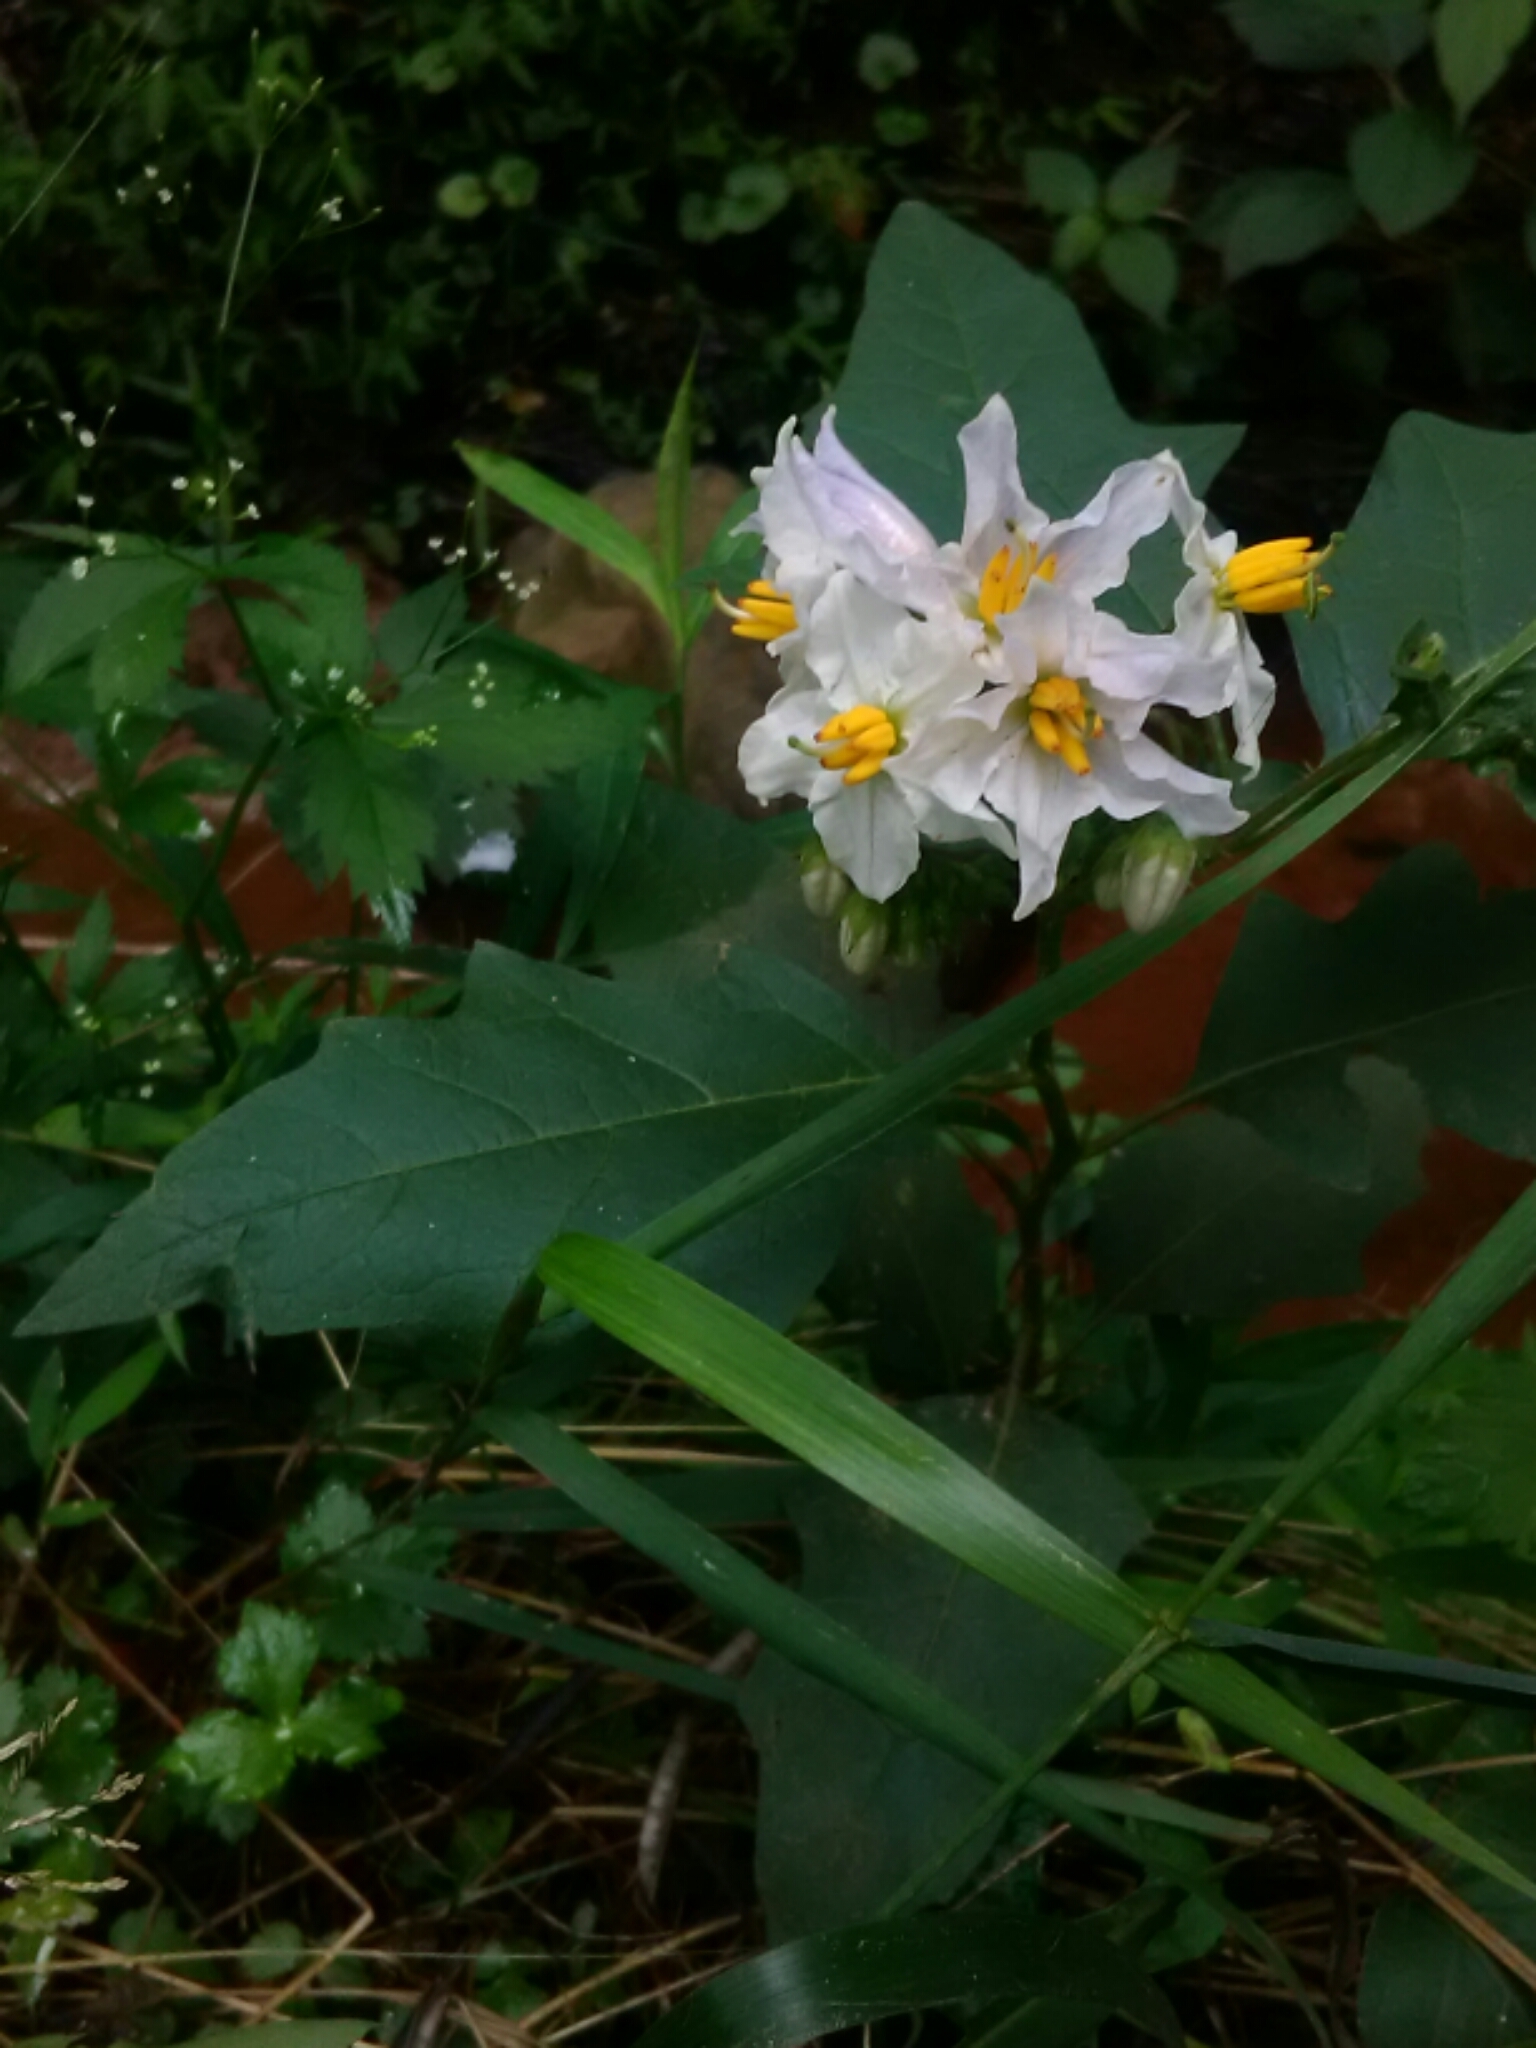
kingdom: Plantae
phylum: Tracheophyta
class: Magnoliopsida
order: Solanales
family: Solanaceae
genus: Solanum
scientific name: Solanum carolinense
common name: Horse-nettle
